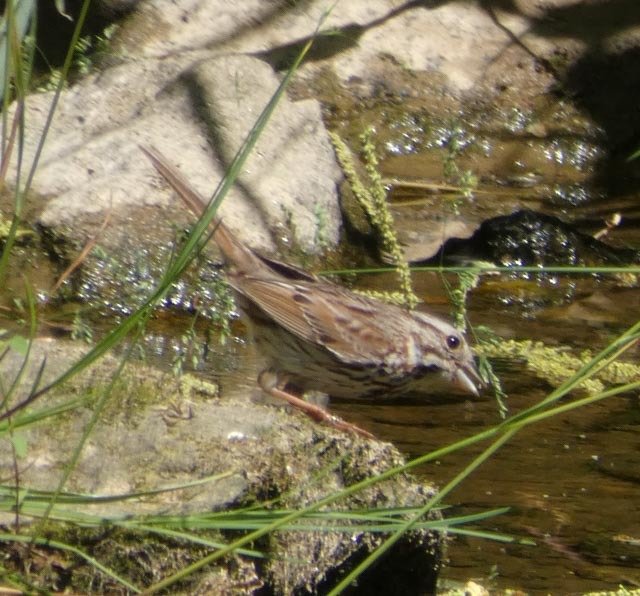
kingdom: Animalia
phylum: Chordata
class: Aves
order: Passeriformes
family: Passerellidae
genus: Melospiza
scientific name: Melospiza melodia
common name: Song sparrow
